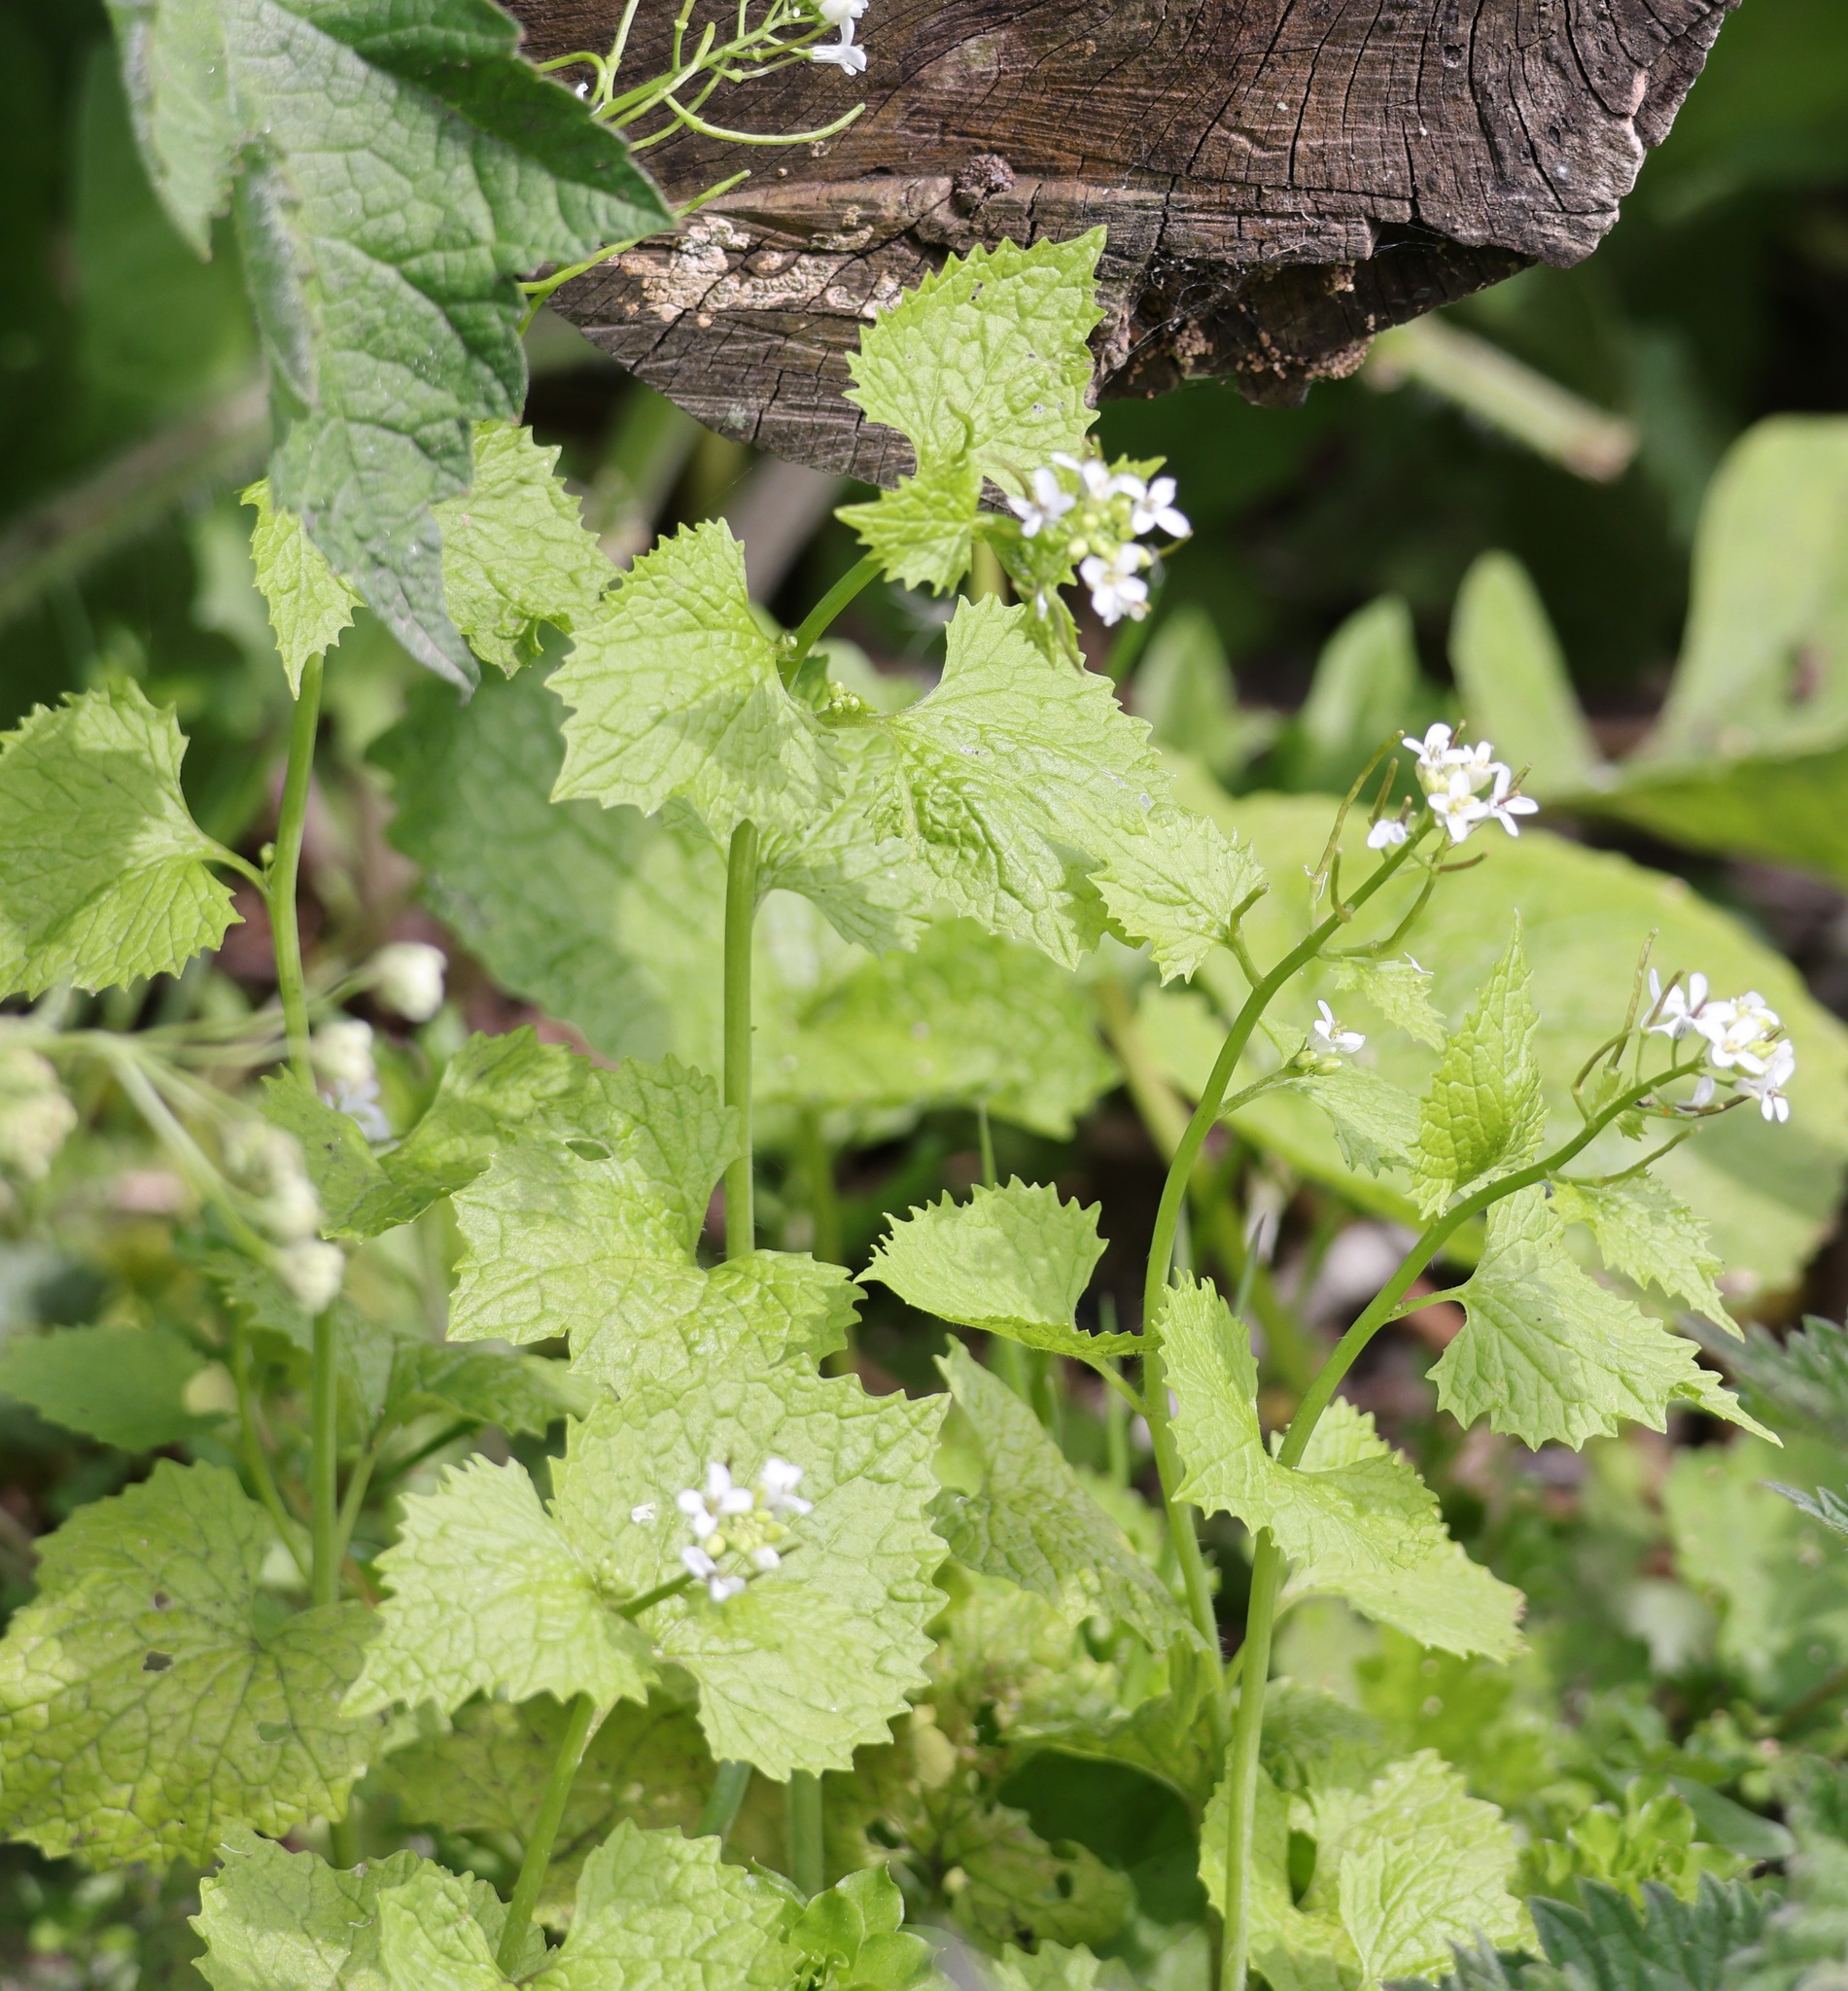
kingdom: Plantae
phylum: Tracheophyta
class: Magnoliopsida
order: Brassicales
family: Brassicaceae
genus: Alliaria
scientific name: Alliaria petiolata
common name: Garlic mustard
